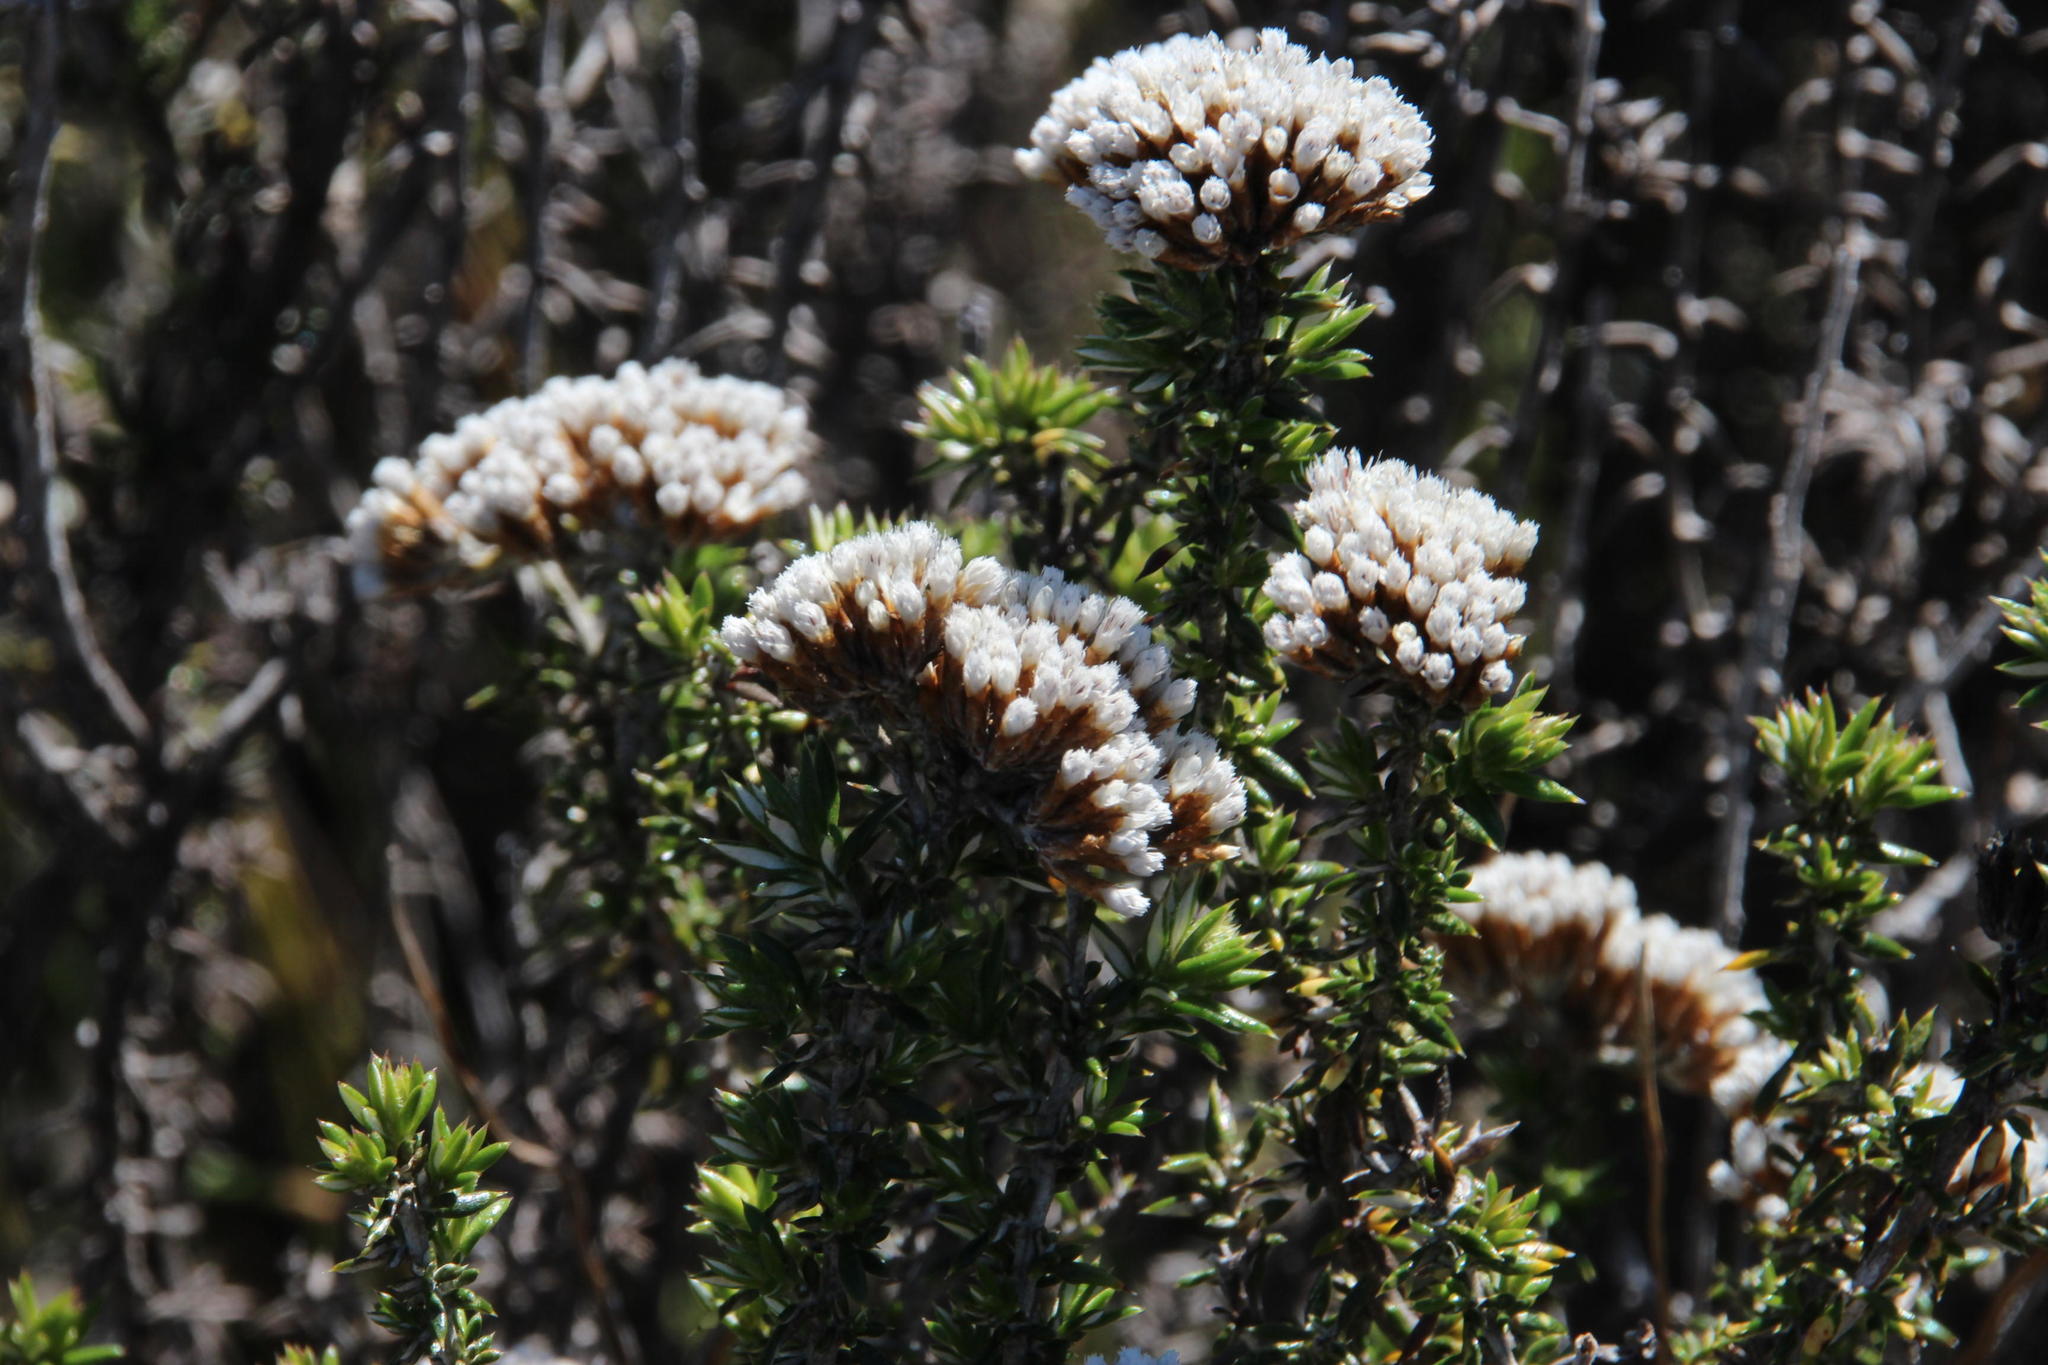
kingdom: Plantae
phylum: Tracheophyta
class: Magnoliopsida
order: Asterales
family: Asteraceae
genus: Metalasia
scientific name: Metalasia densa
